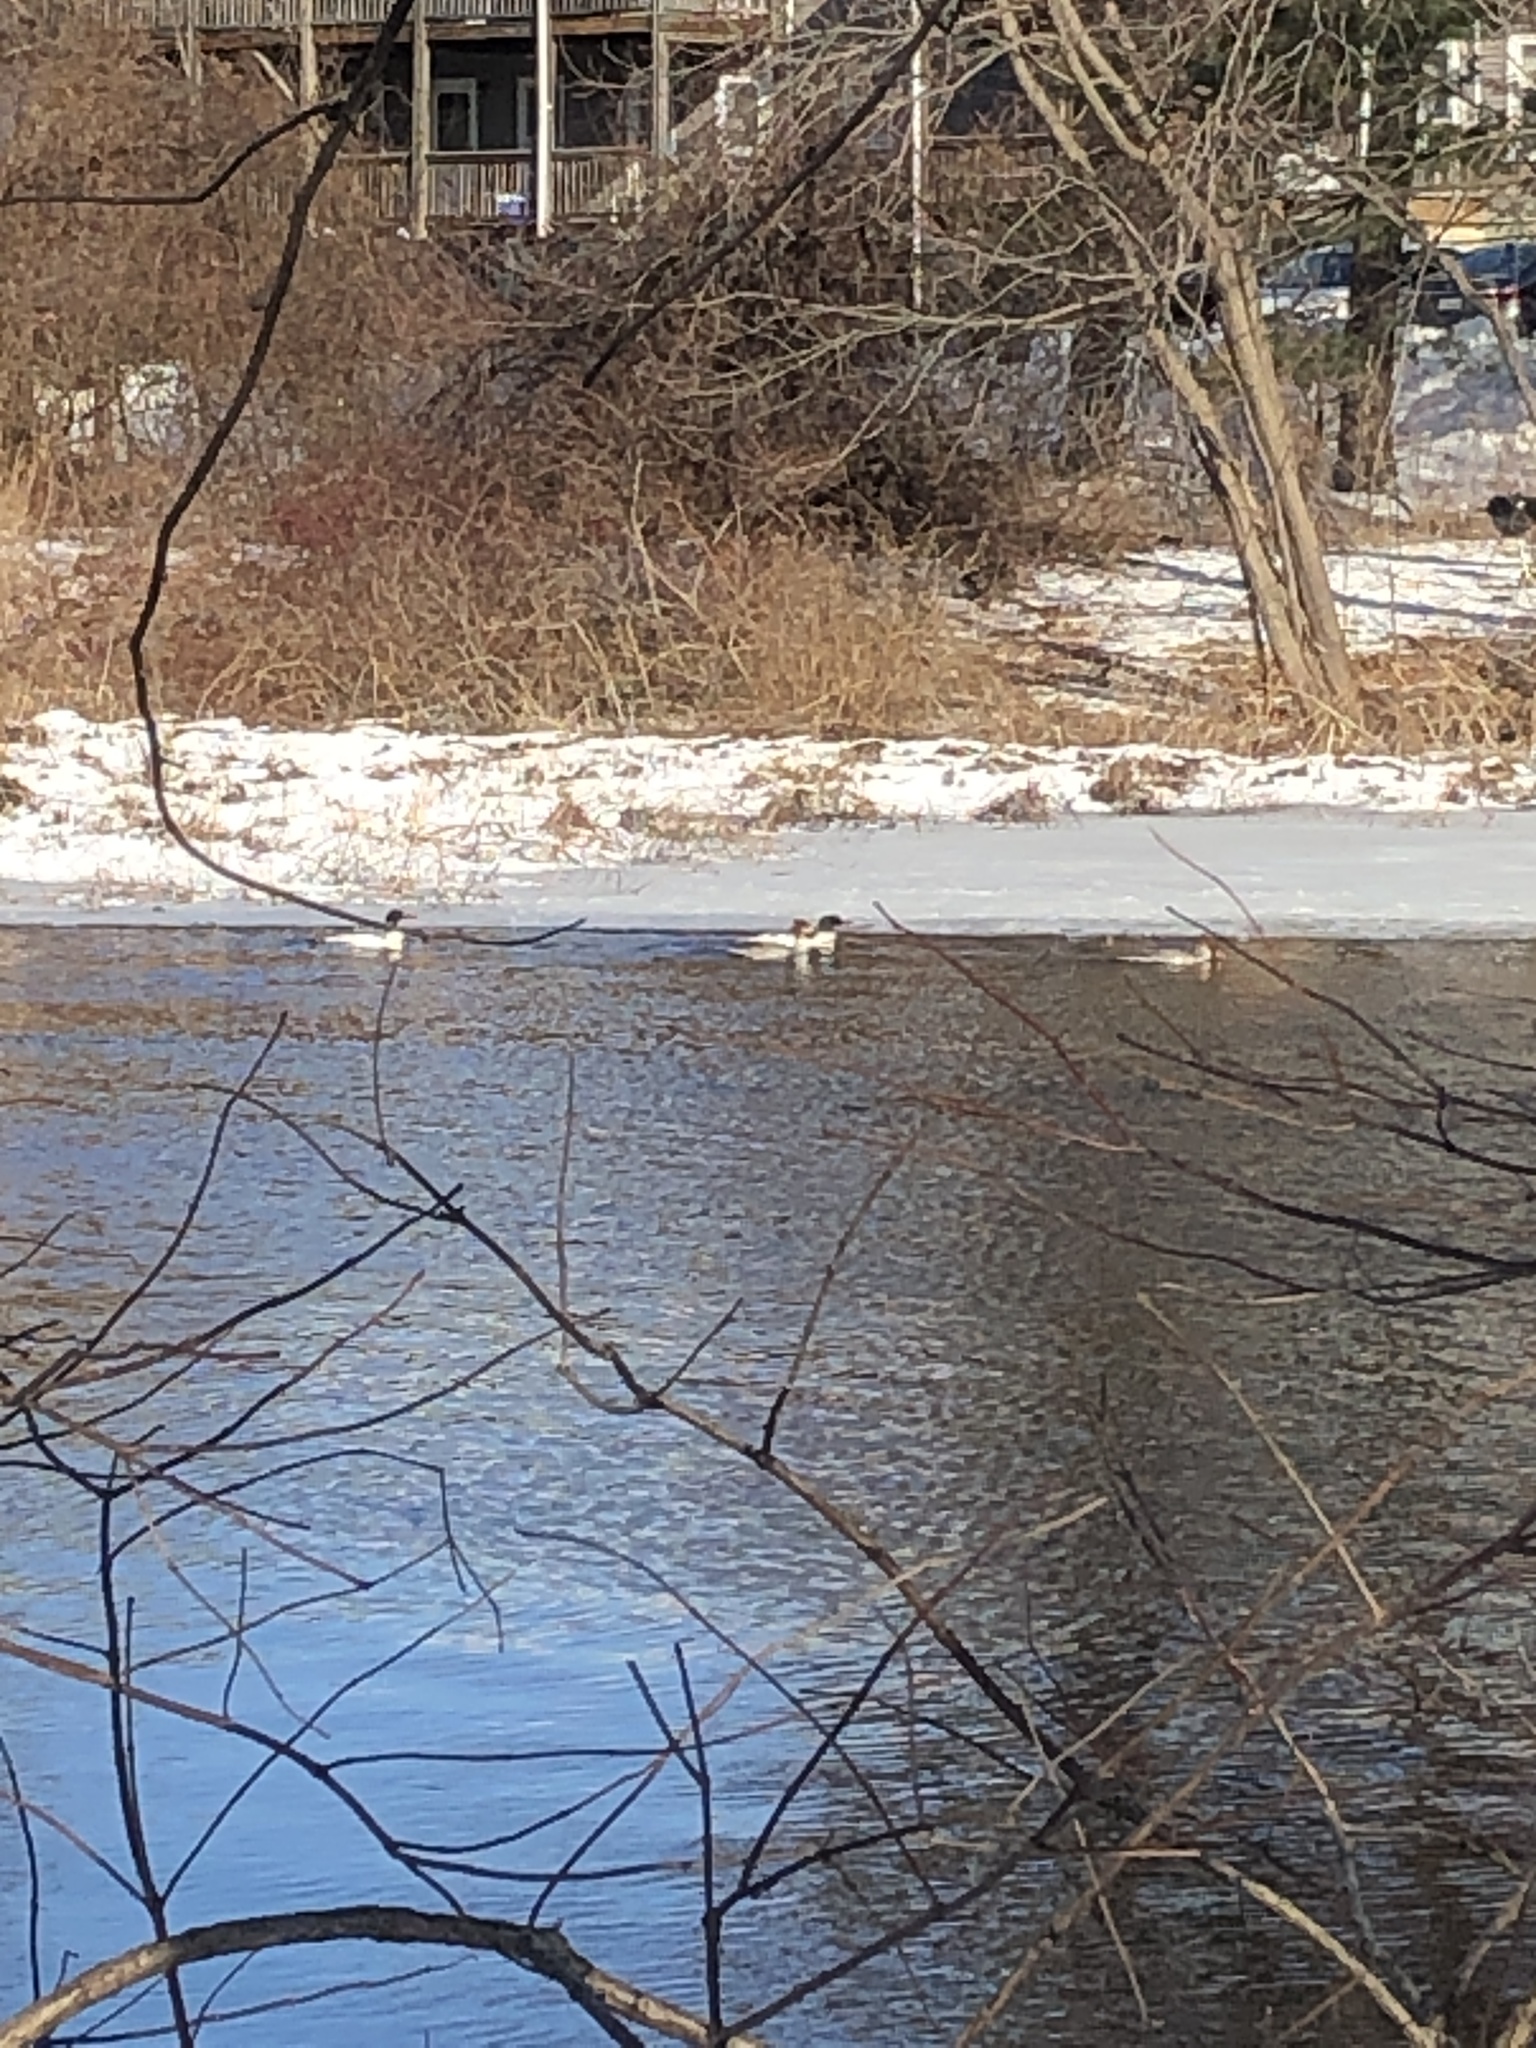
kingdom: Animalia
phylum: Chordata
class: Aves
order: Anseriformes
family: Anatidae
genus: Mergus
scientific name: Mergus merganser
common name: Common merganser
